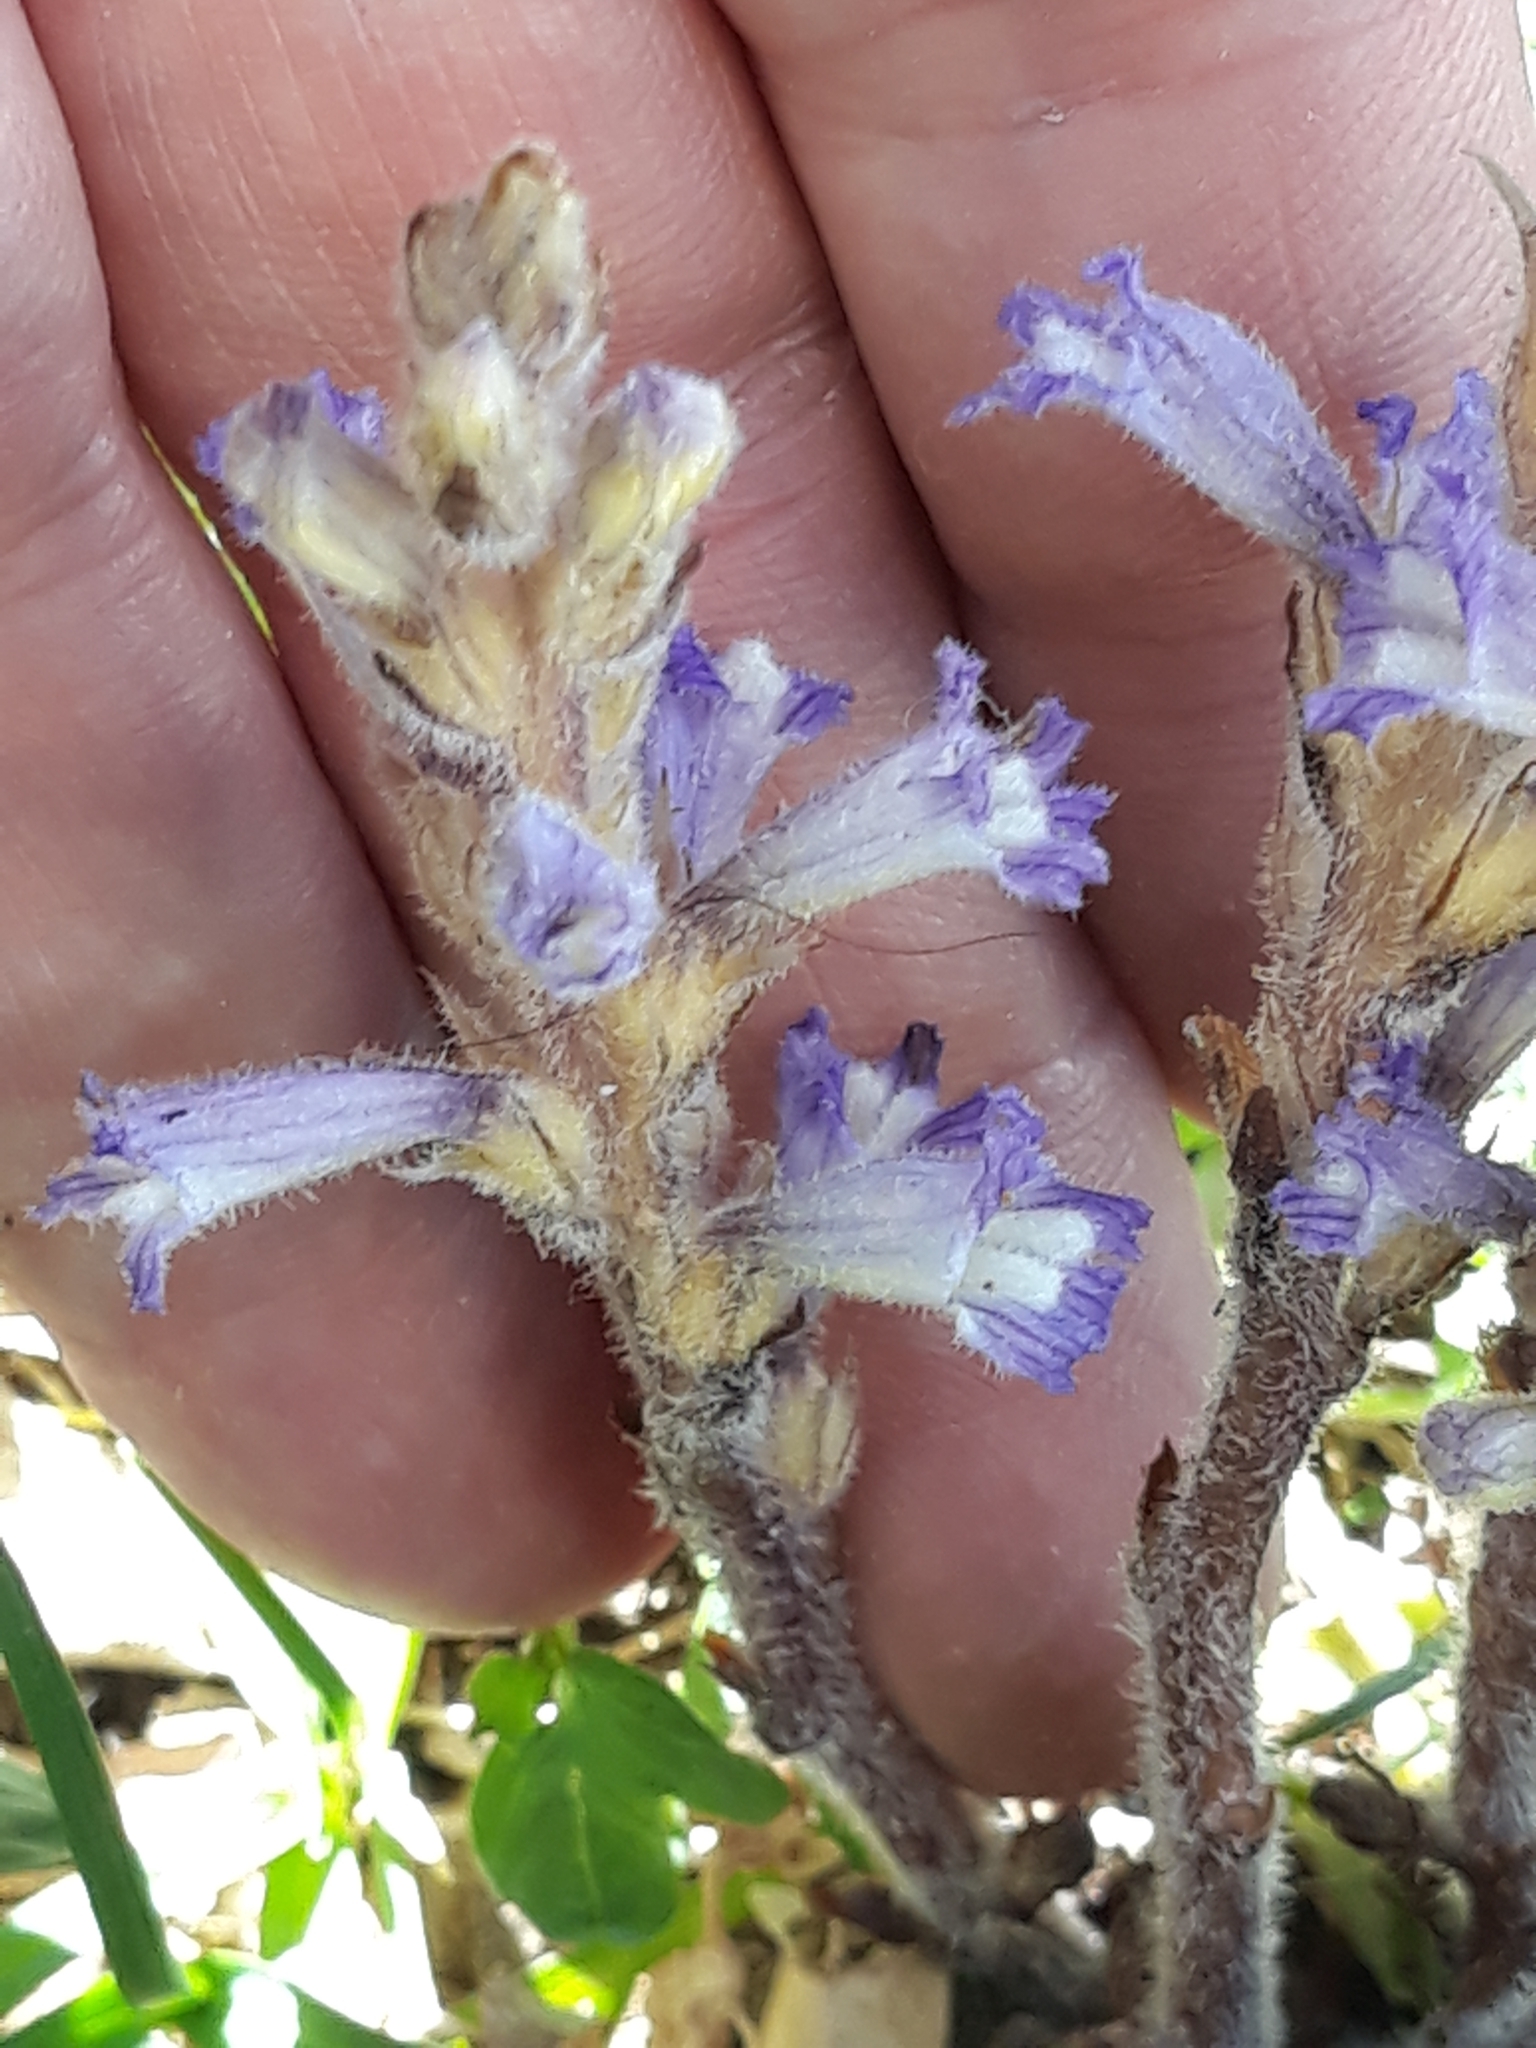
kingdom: Plantae
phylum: Tracheophyta
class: Magnoliopsida
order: Lamiales
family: Orobanchaceae
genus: Phelipanche
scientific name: Phelipanche mutelii
